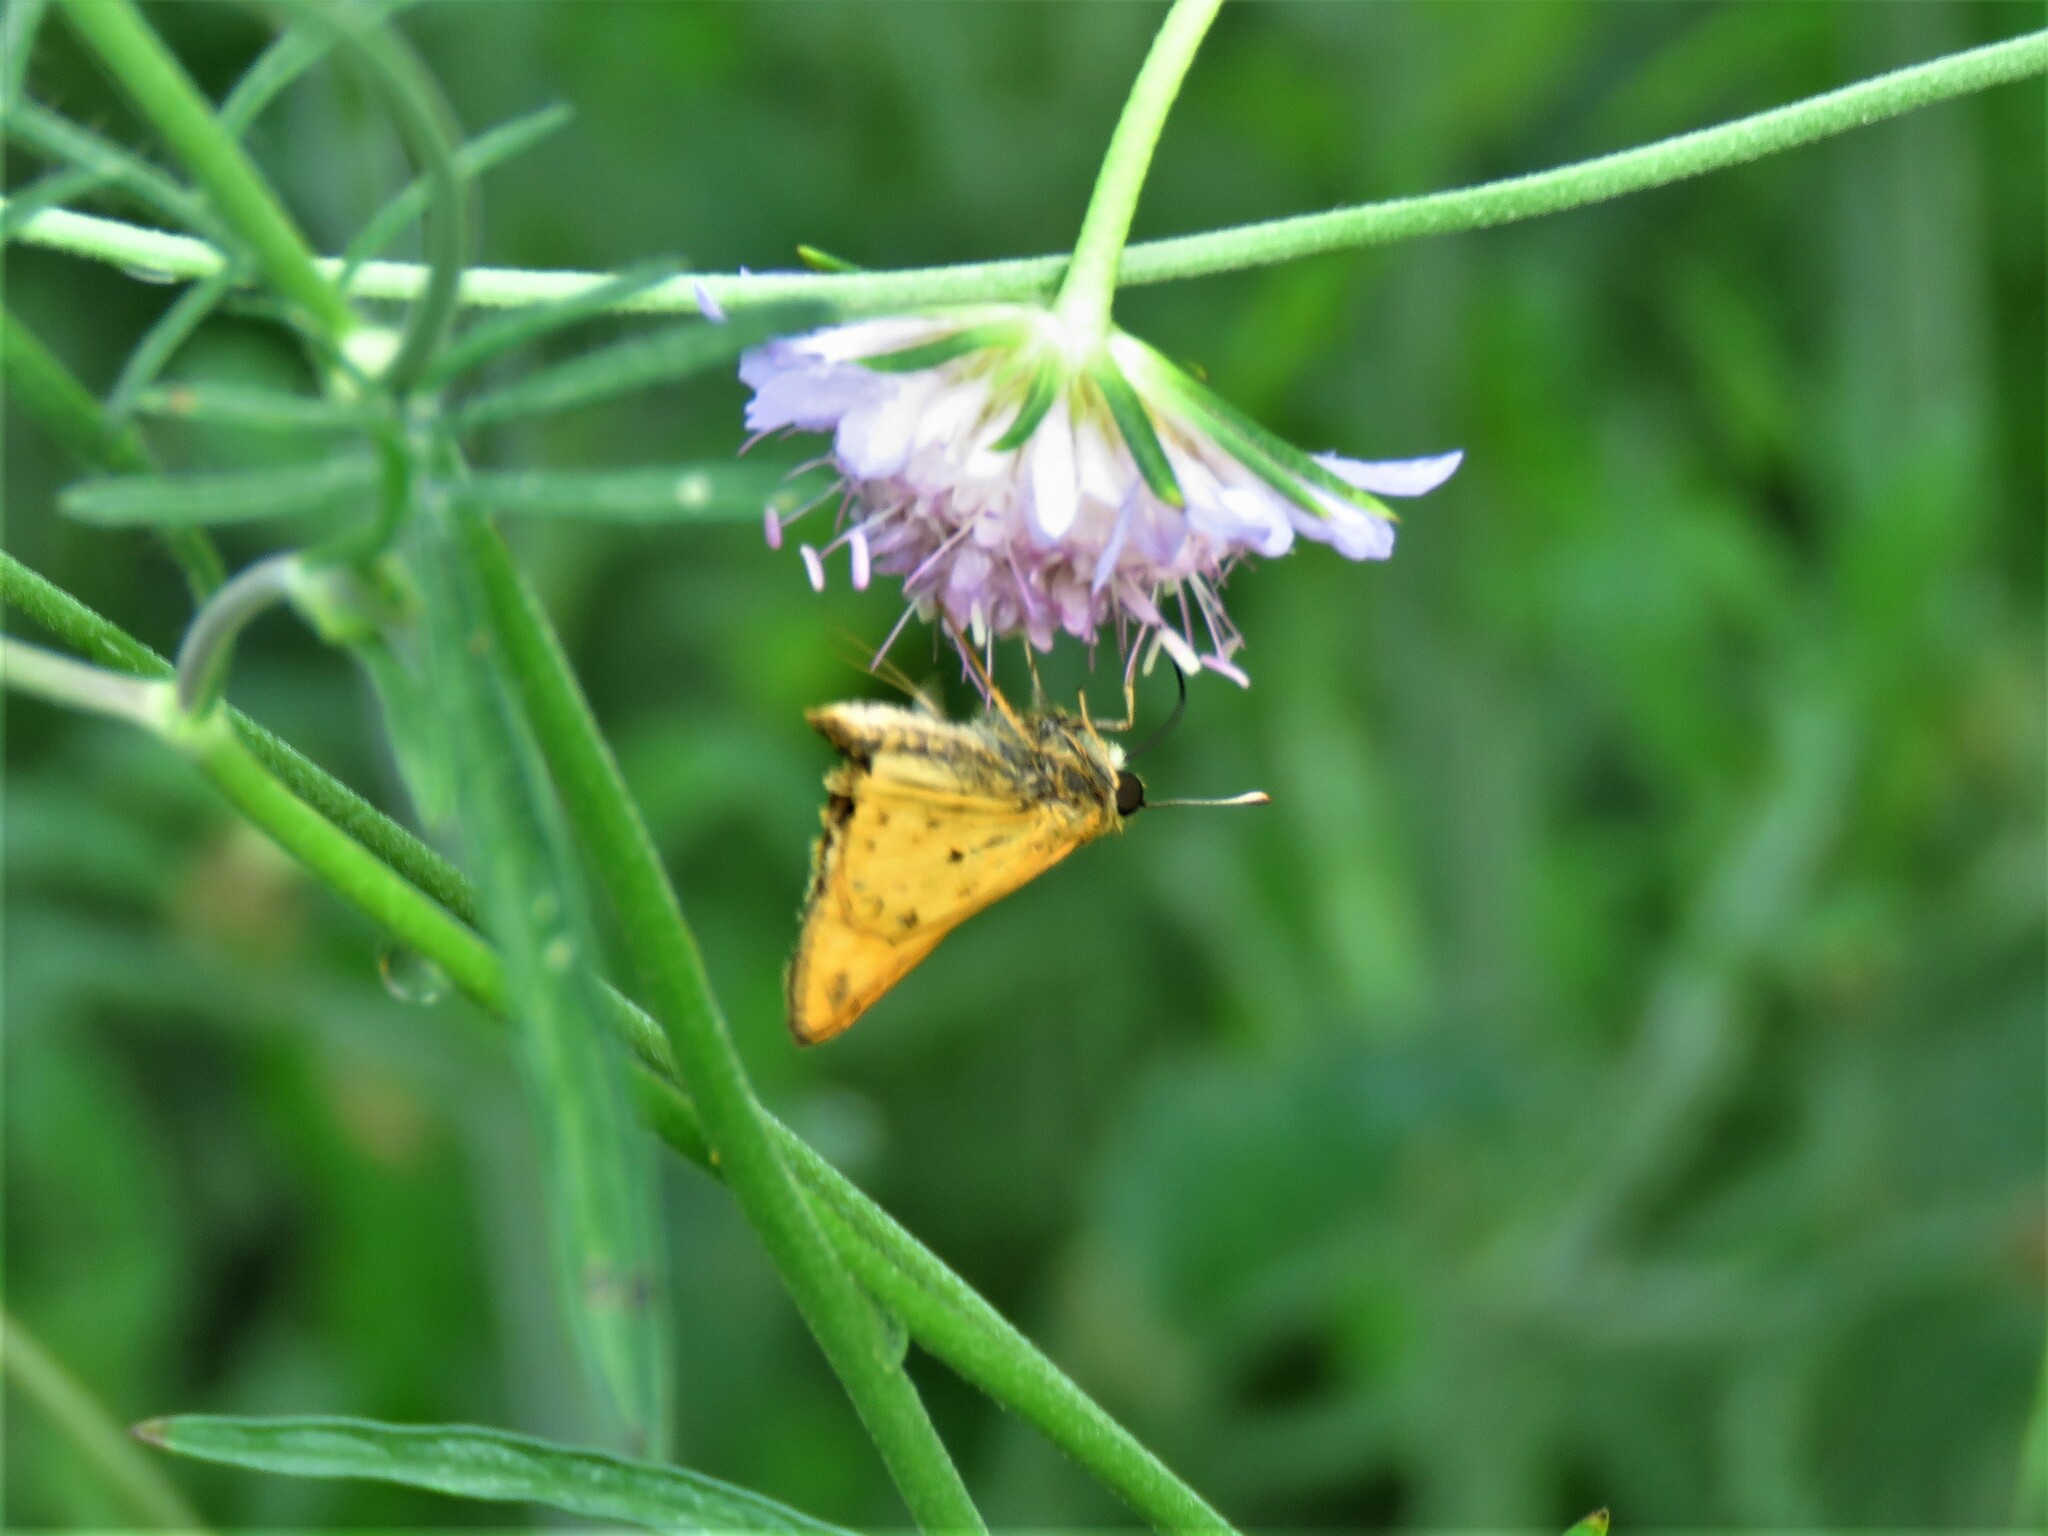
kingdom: Animalia
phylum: Arthropoda
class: Insecta
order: Lepidoptera
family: Hesperiidae
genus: Hylephila
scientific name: Hylephila phyleus
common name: Fiery skipper
